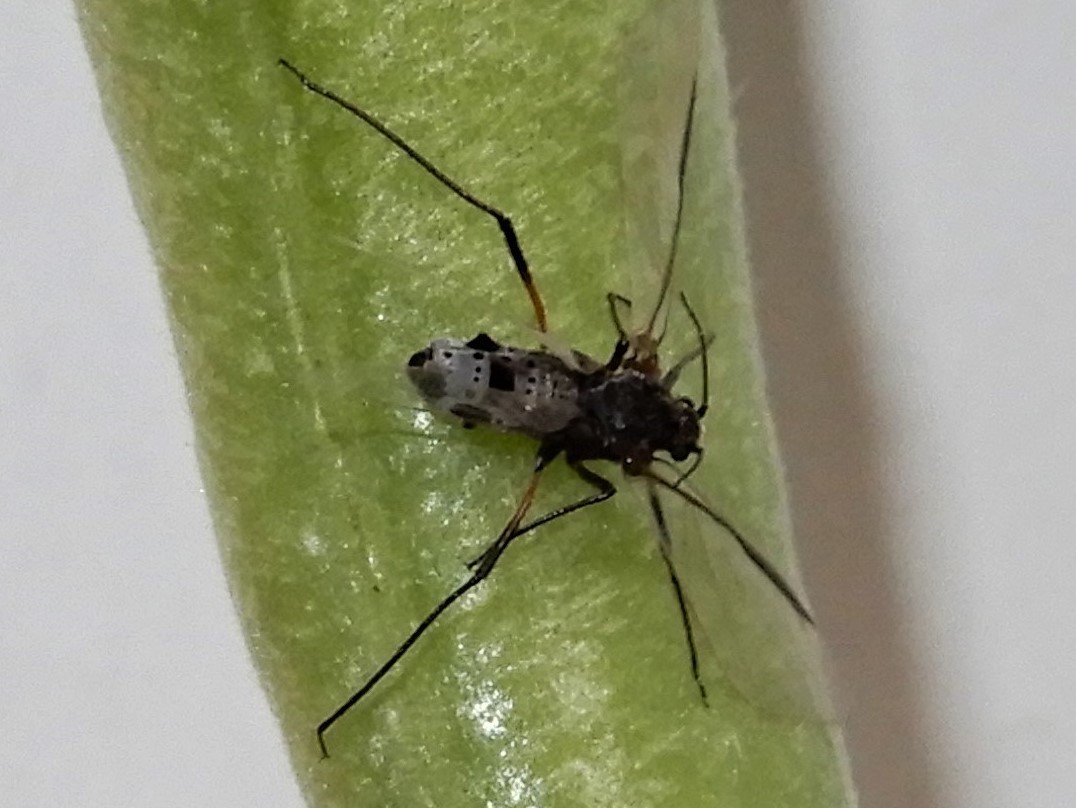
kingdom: Animalia
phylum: Arthropoda
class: Insecta
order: Hemiptera
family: Aphididae
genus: Tuberolachnus
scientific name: Tuberolachnus salignus
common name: Giant willow aphid
